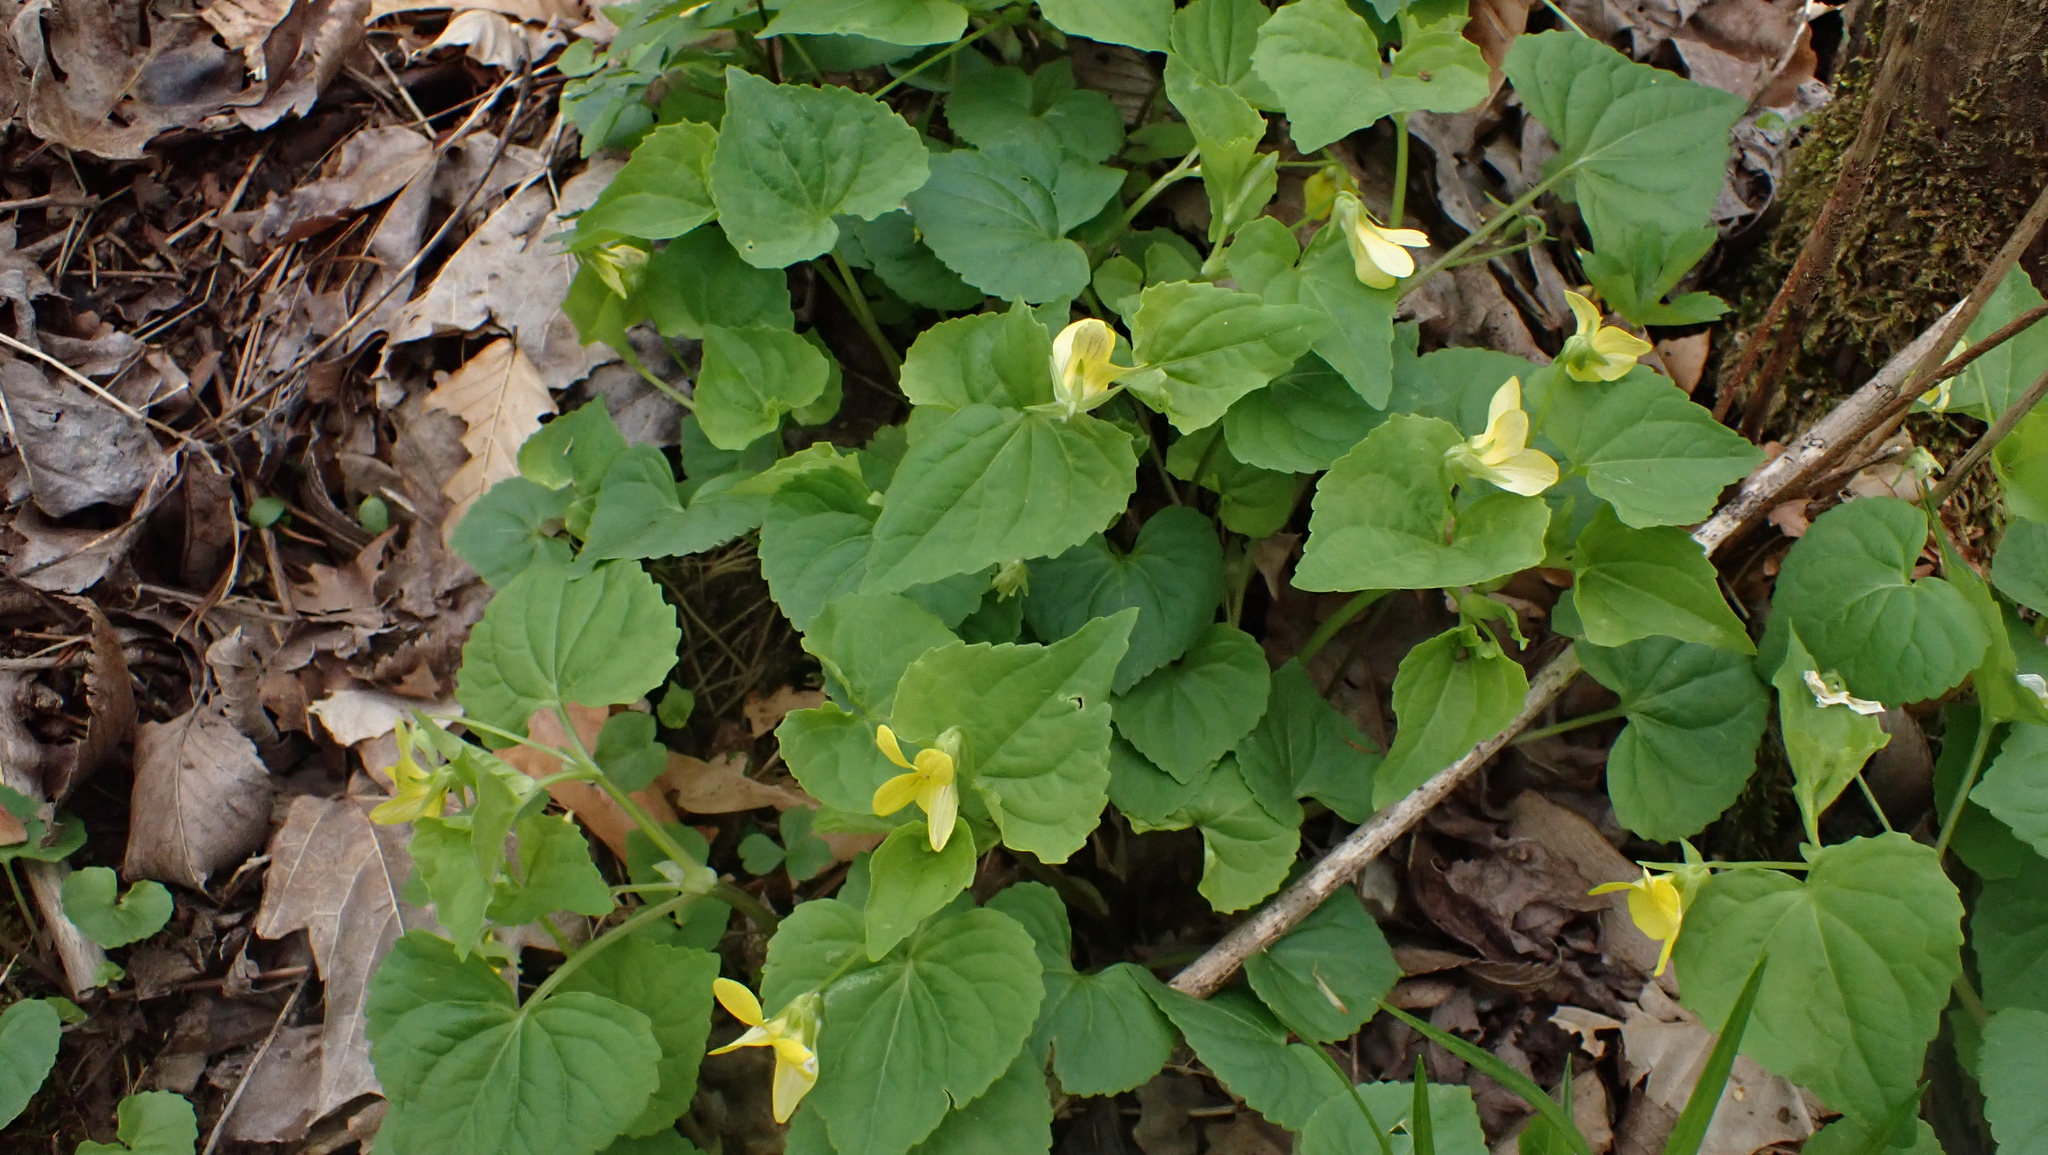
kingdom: Plantae
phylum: Tracheophyta
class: Magnoliopsida
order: Malpighiales
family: Violaceae
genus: Viola
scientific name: Viola eriocarpa
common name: Smooth yellow violet
